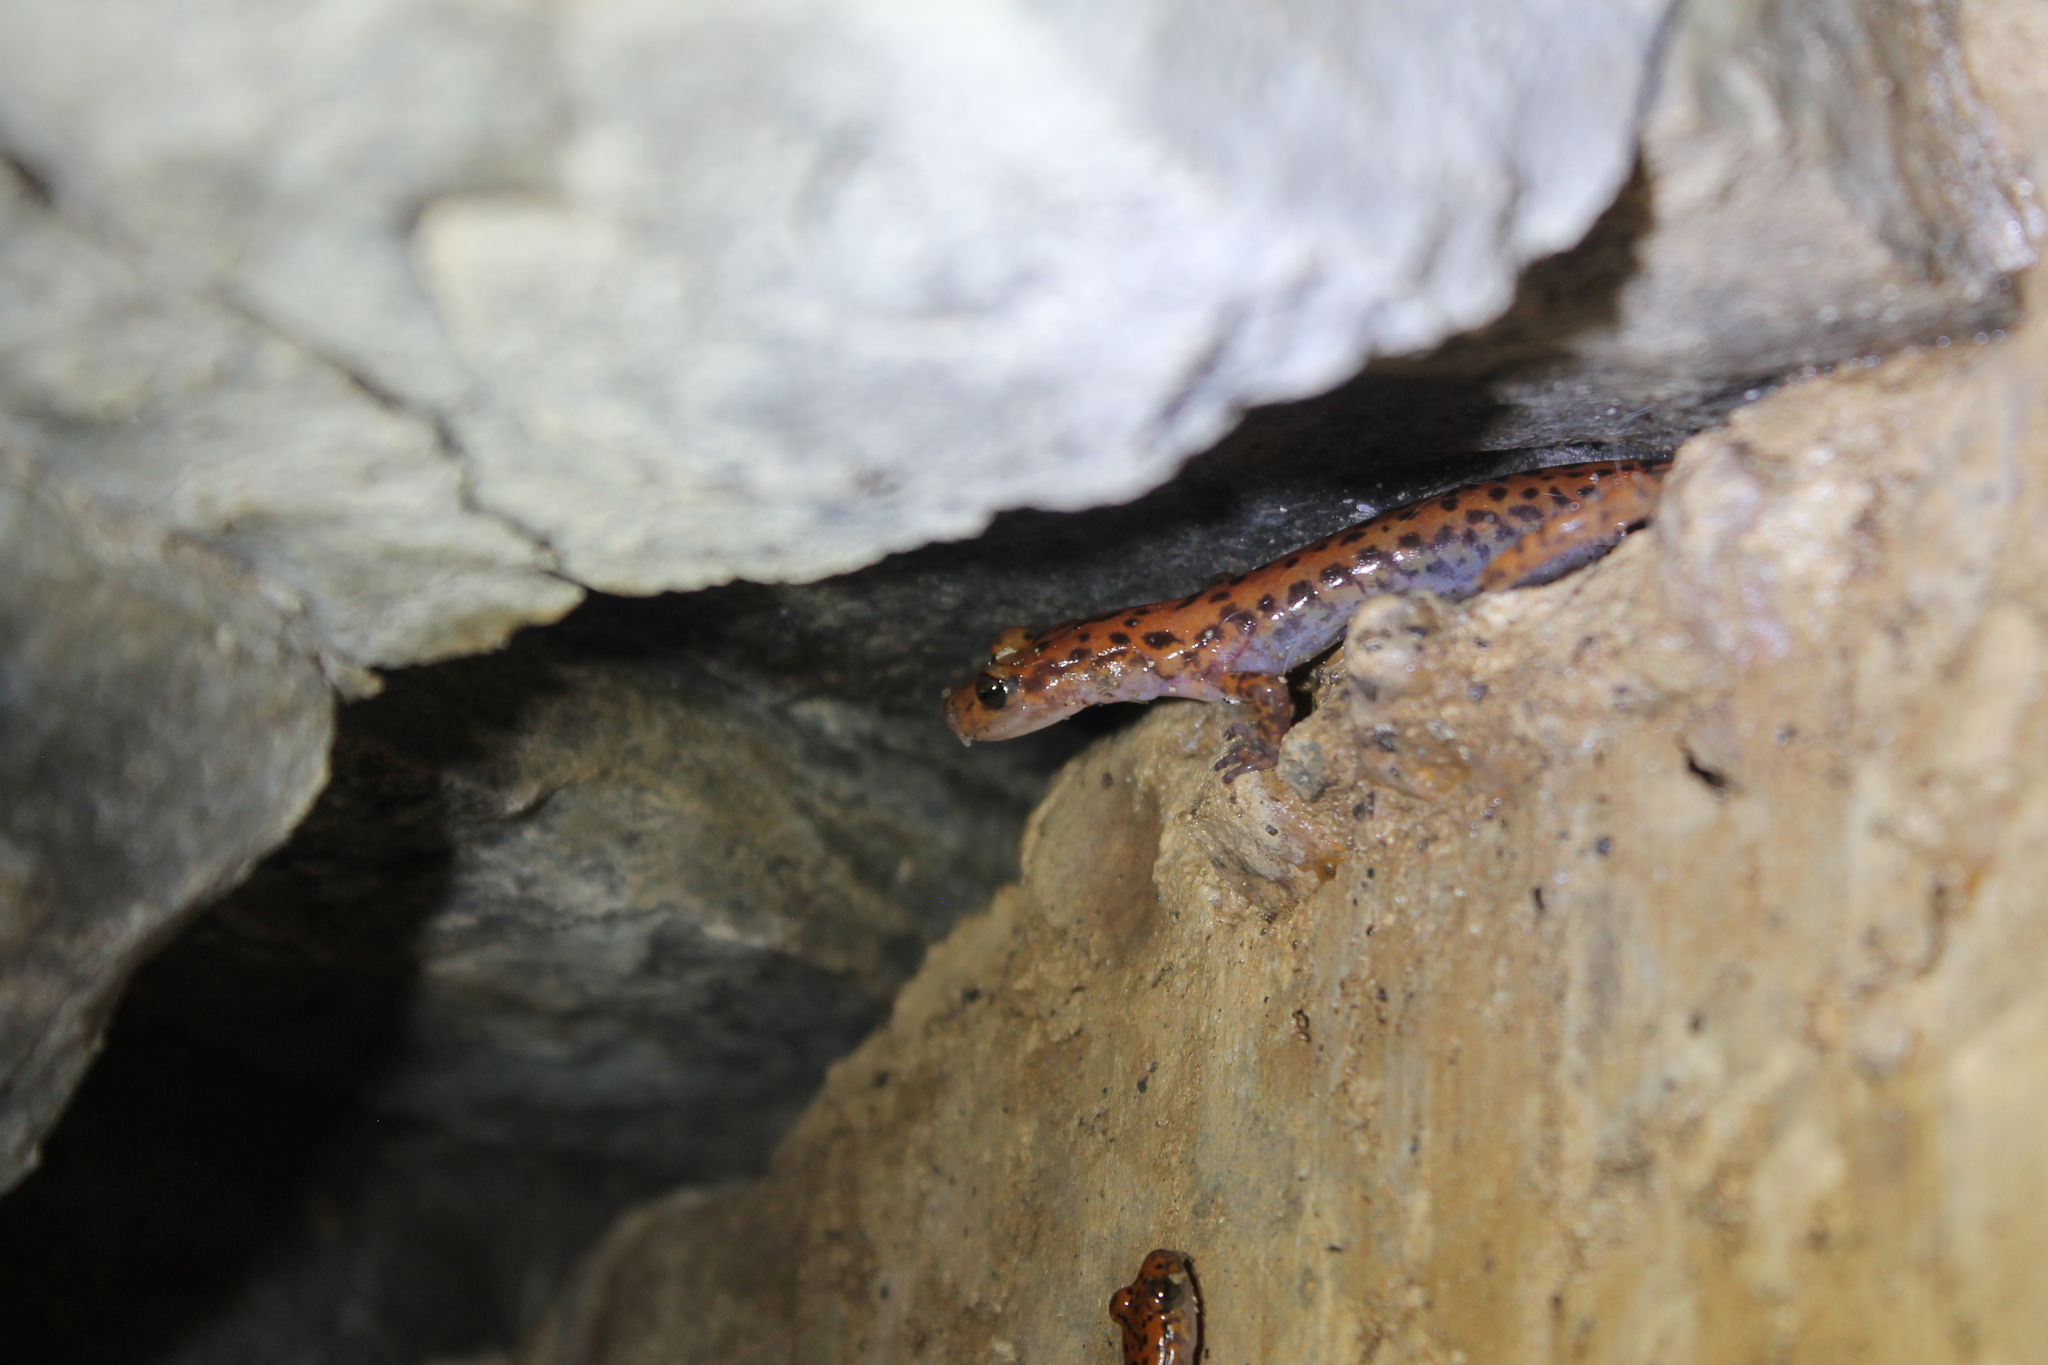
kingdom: Animalia
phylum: Chordata
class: Amphibia
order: Caudata
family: Plethodontidae
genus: Eurycea
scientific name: Eurycea lucifuga
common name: Cave salamander
